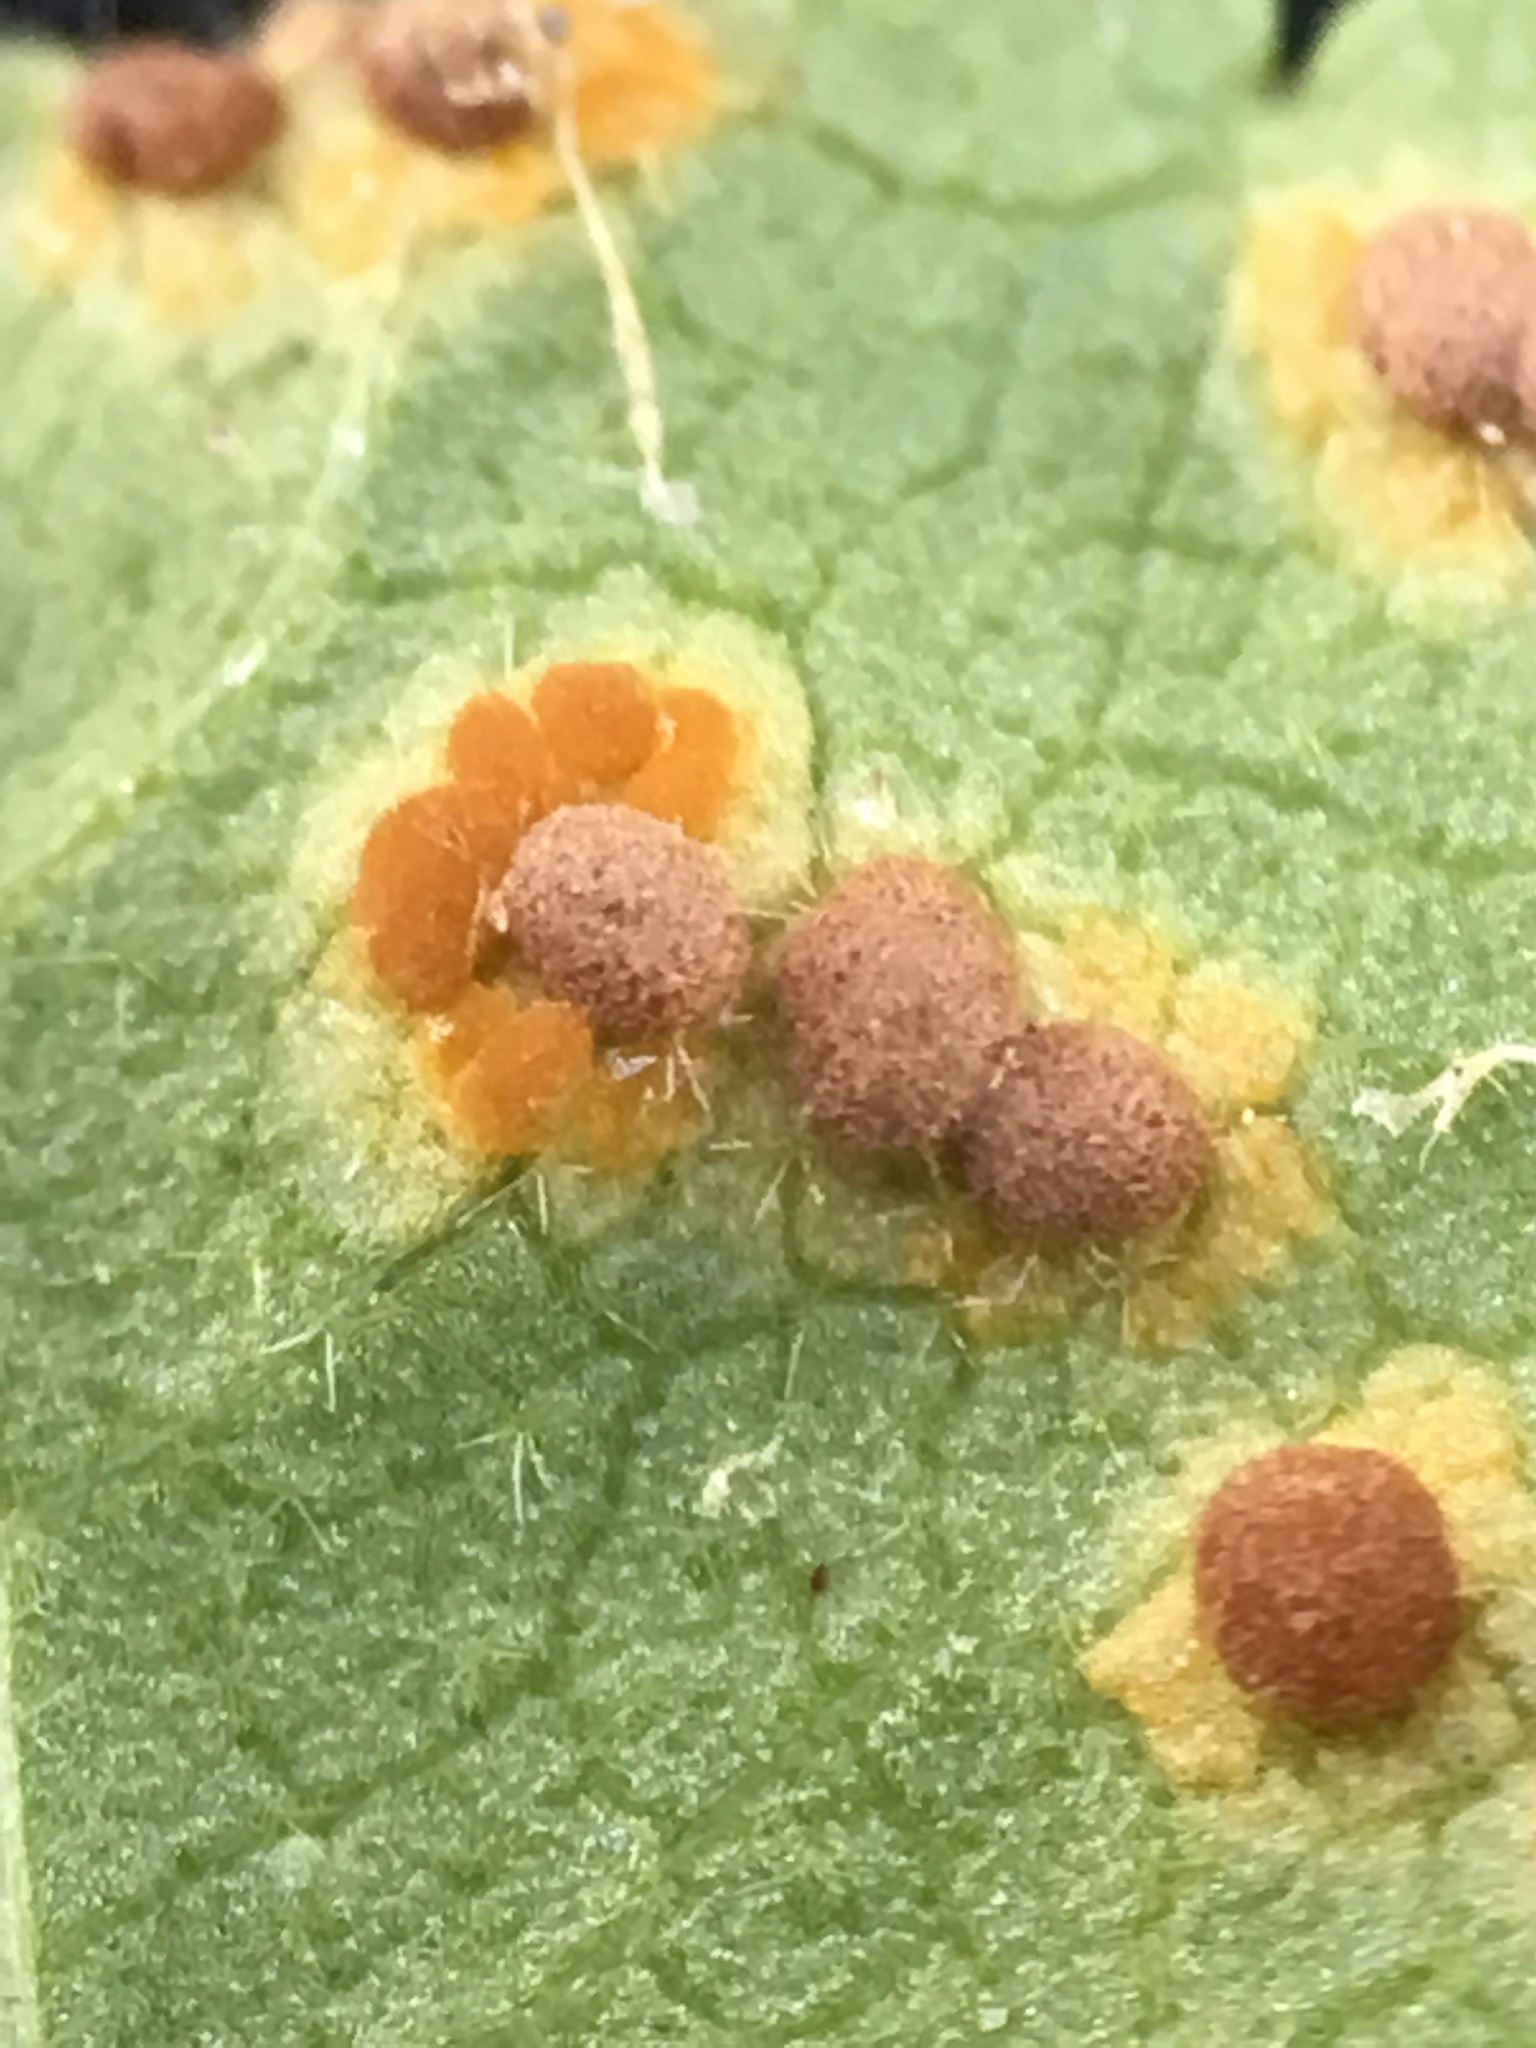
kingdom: Fungi
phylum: Basidiomycota
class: Pucciniomycetes
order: Pucciniales
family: Pucciniaceae
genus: Puccinia
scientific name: Puccinia malvacearum
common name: Hollyhock rust
